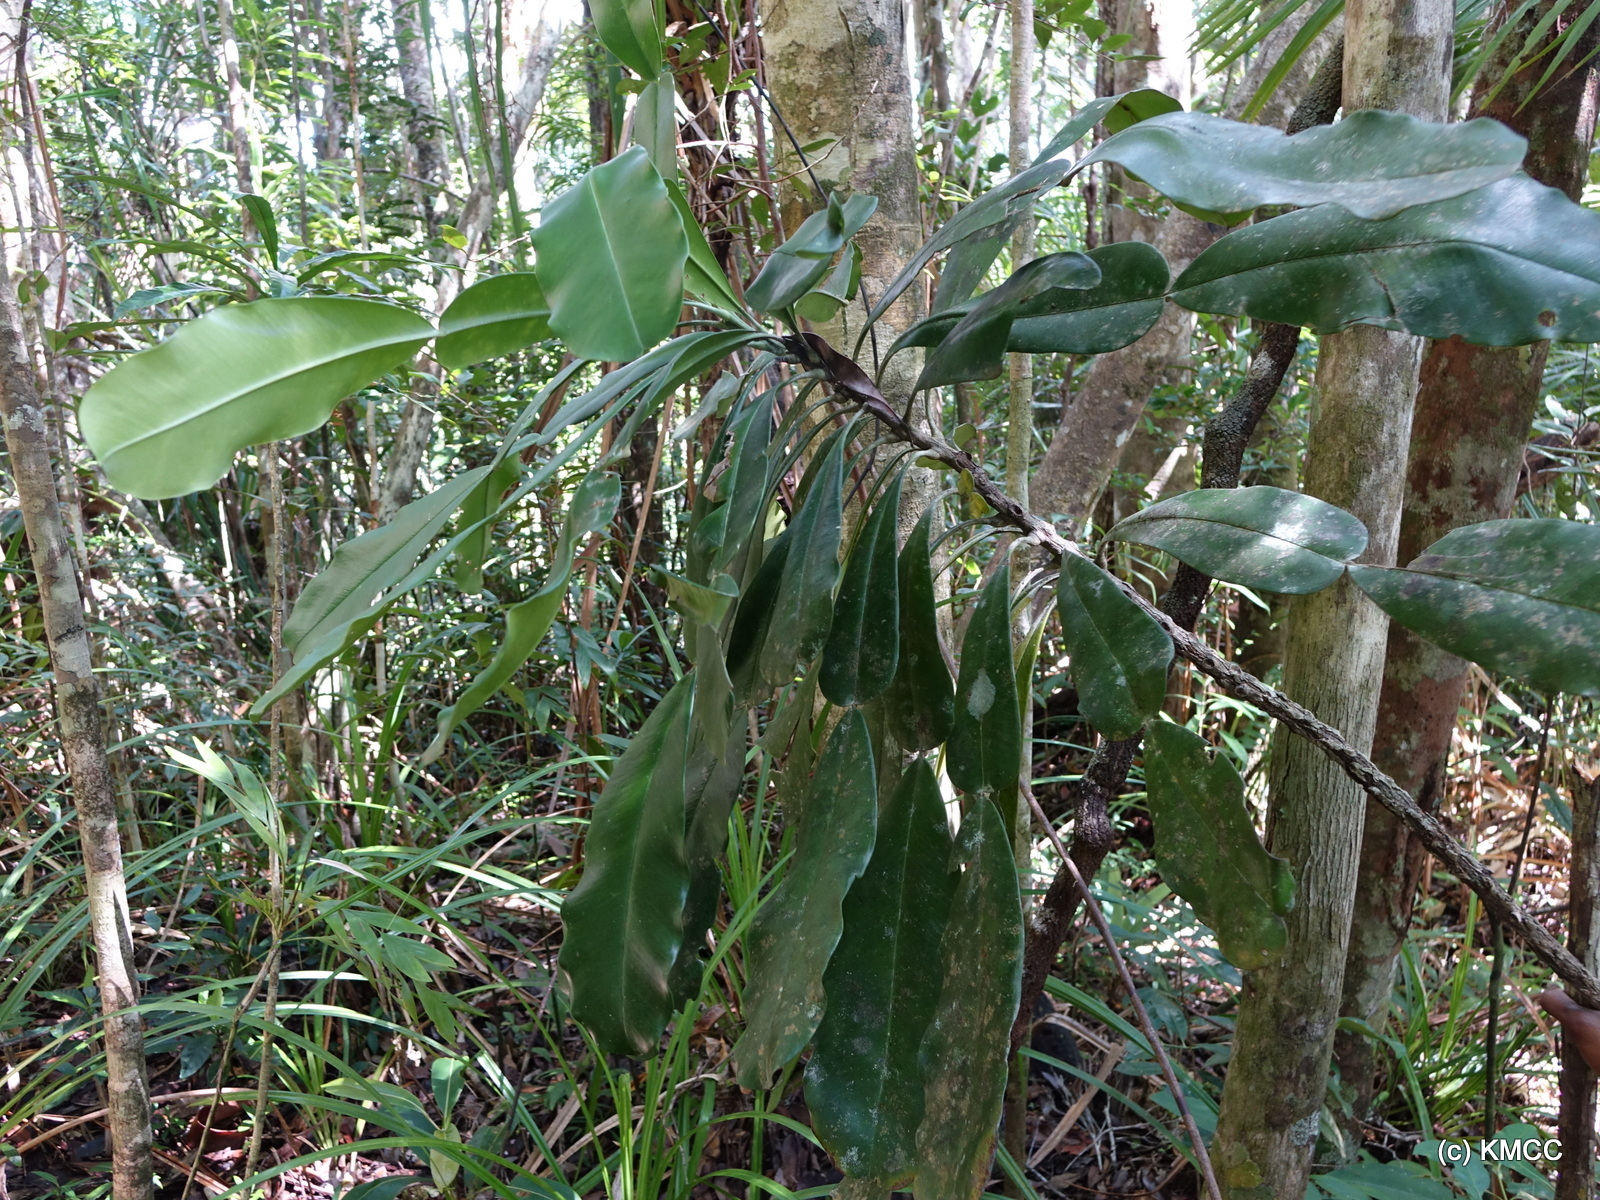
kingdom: Plantae
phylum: Tracheophyta
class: Magnoliopsida
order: Lamiales
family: Bignoniaceae
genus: Phyllarthron
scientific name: Phyllarthron antongiliense
